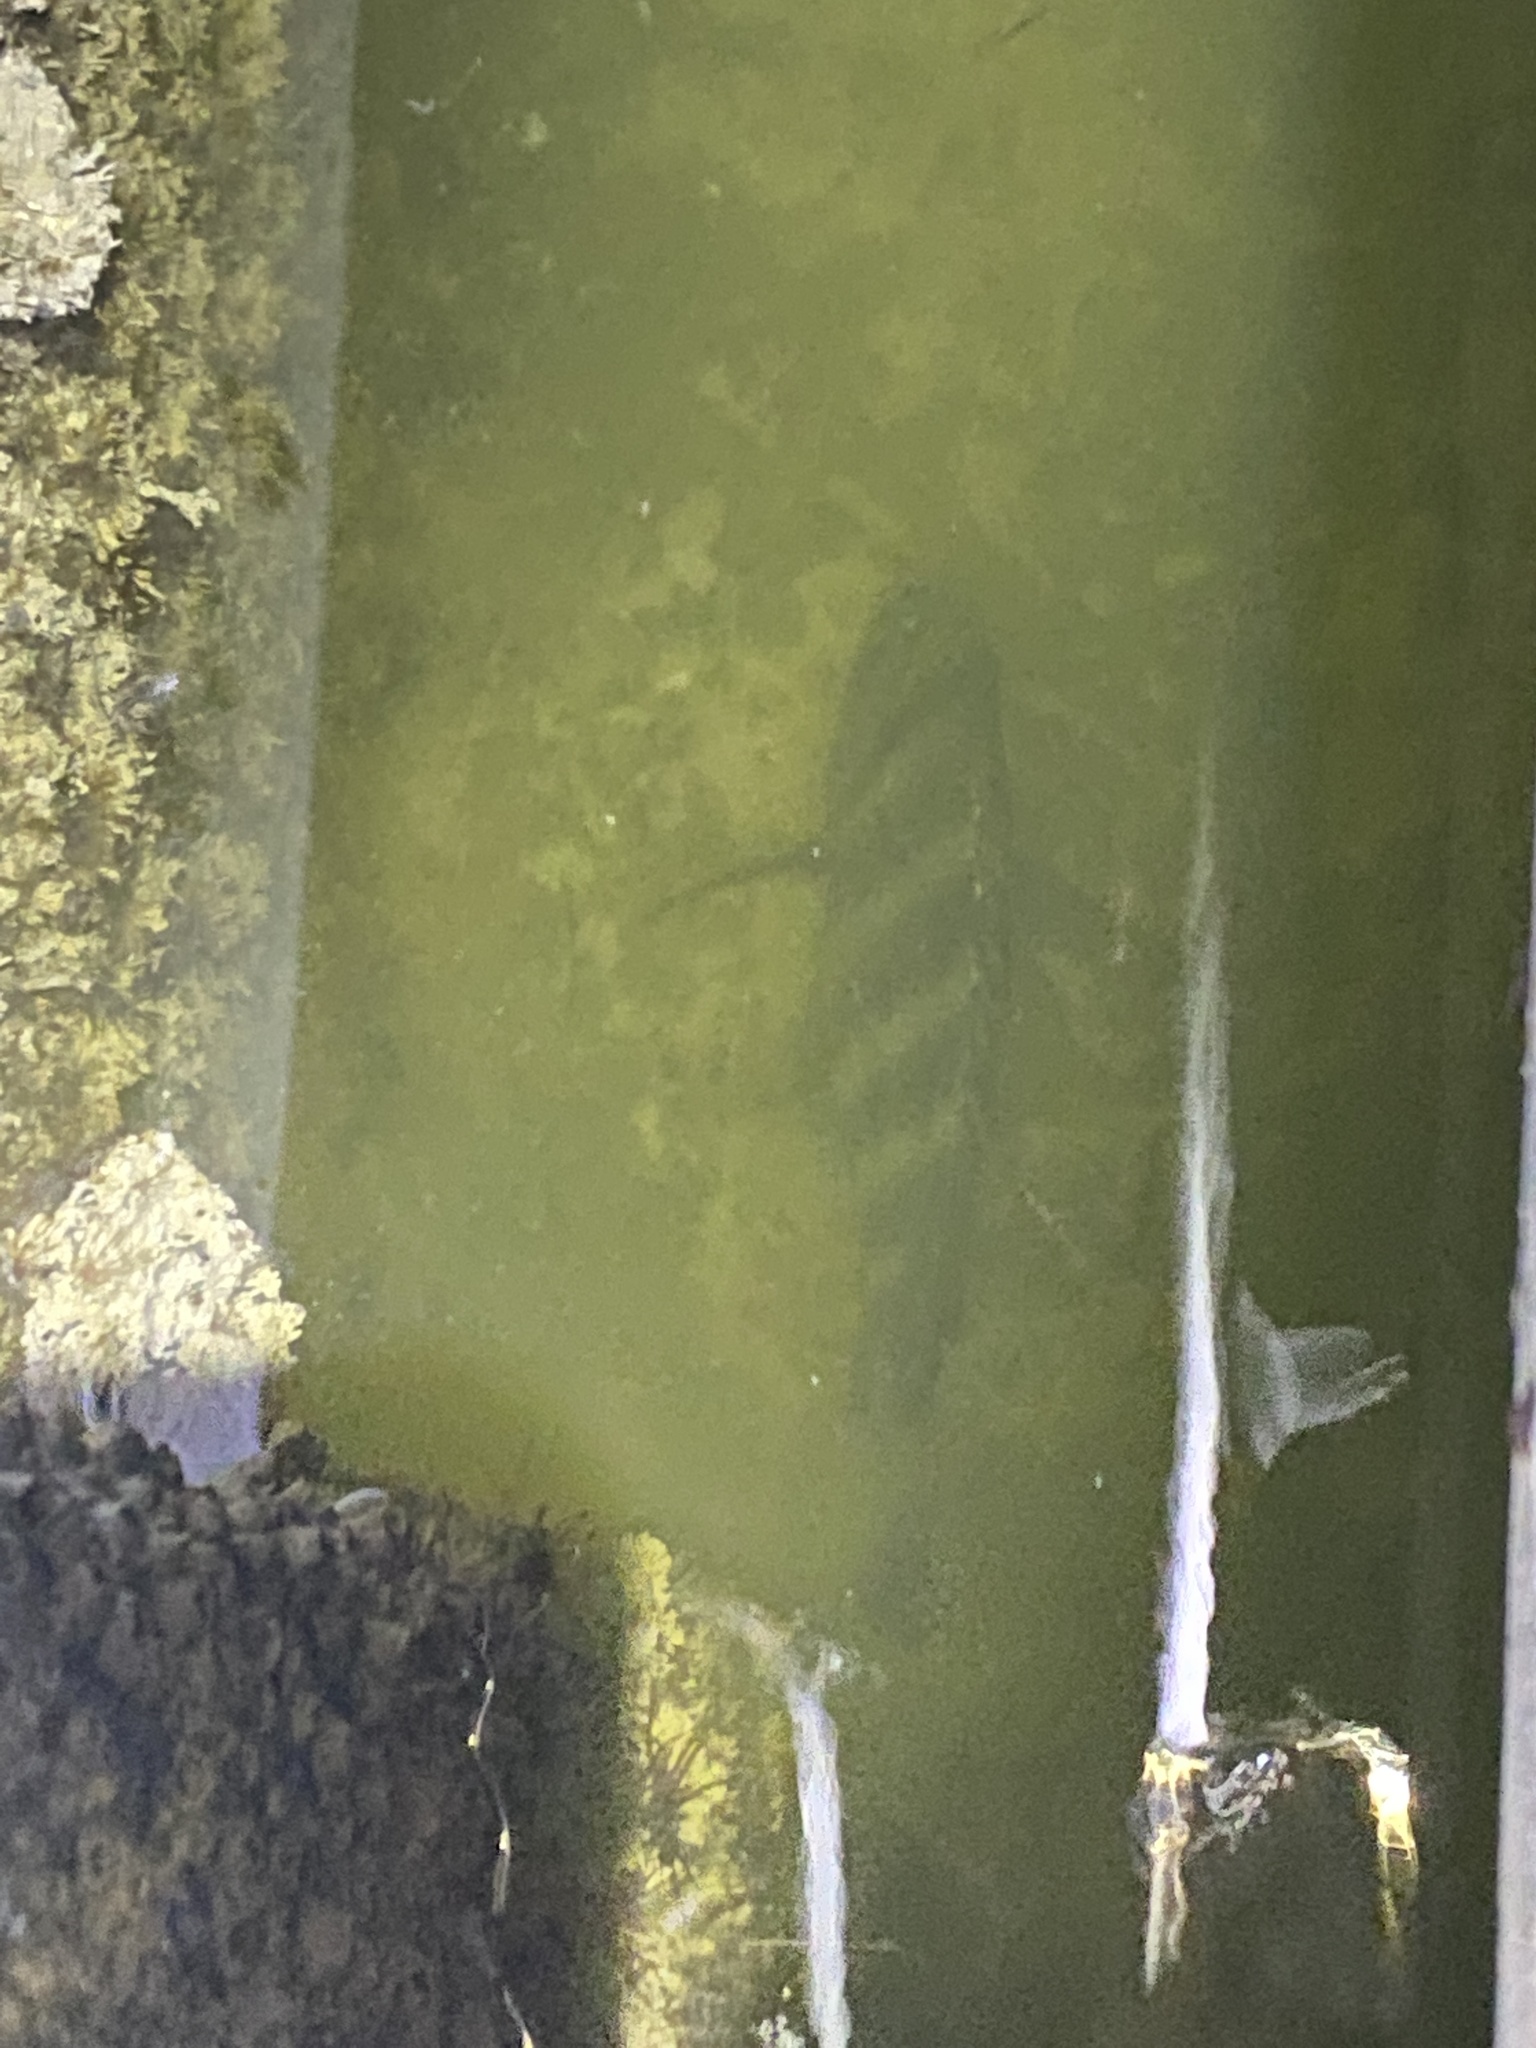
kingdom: Animalia
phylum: Chordata
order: Perciformes
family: Sparidae
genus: Archosargus
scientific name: Archosargus probatocephalus
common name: Sheepshead
